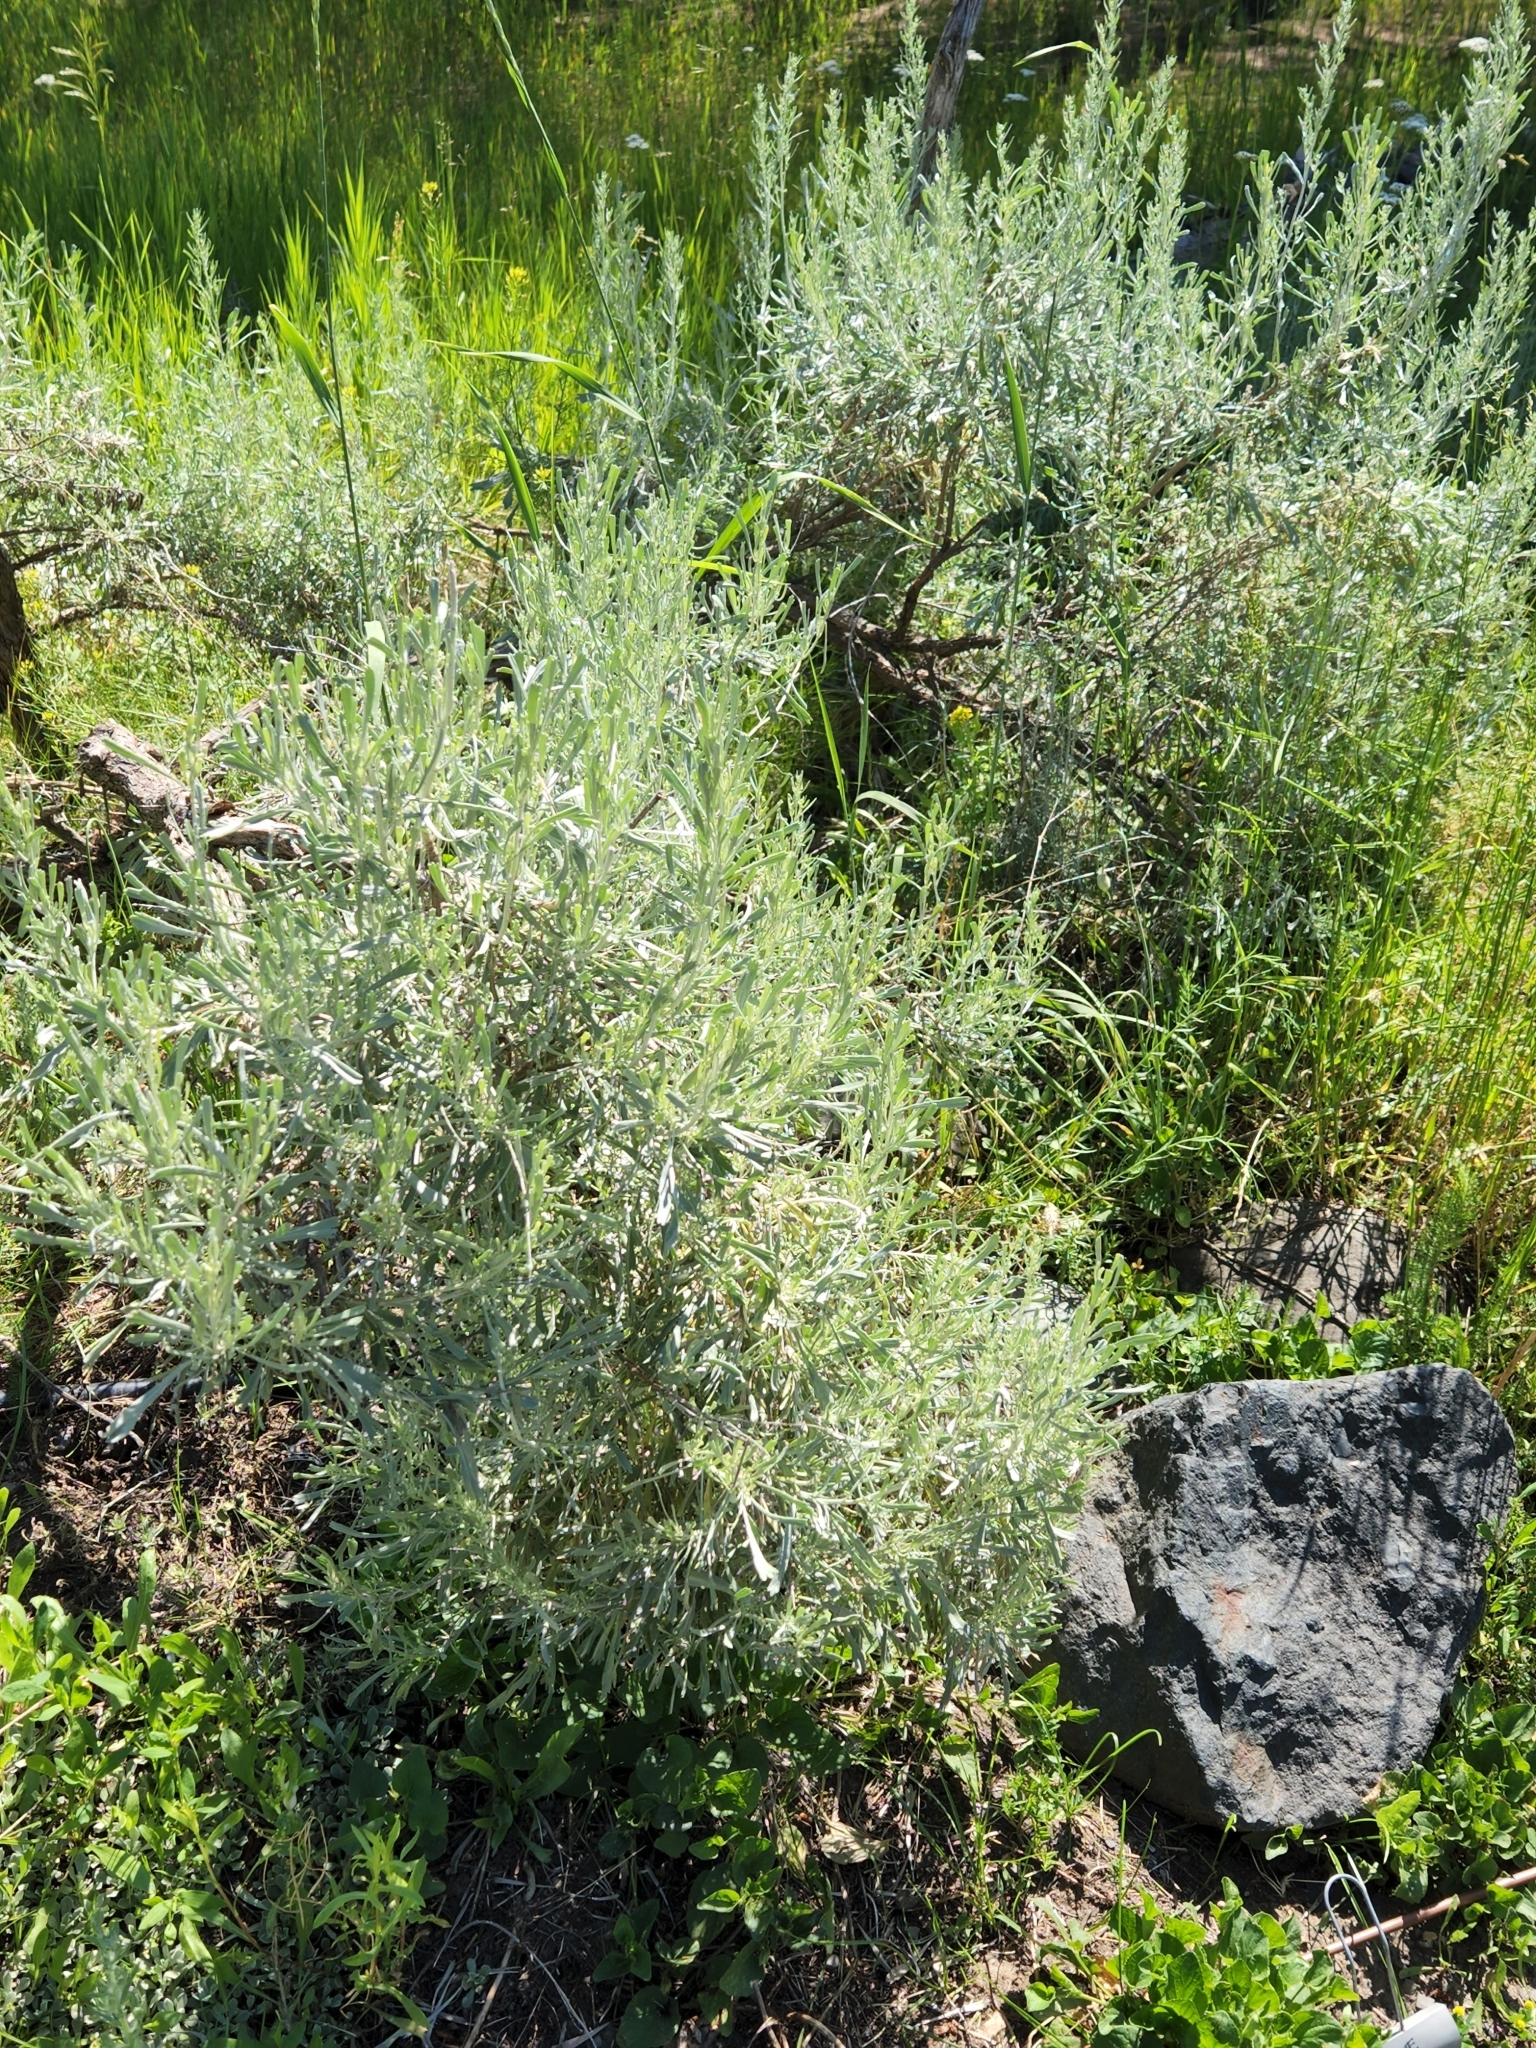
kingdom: Plantae
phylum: Tracheophyta
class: Magnoliopsida
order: Asterales
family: Asteraceae
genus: Artemisia
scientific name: Artemisia tridentata
